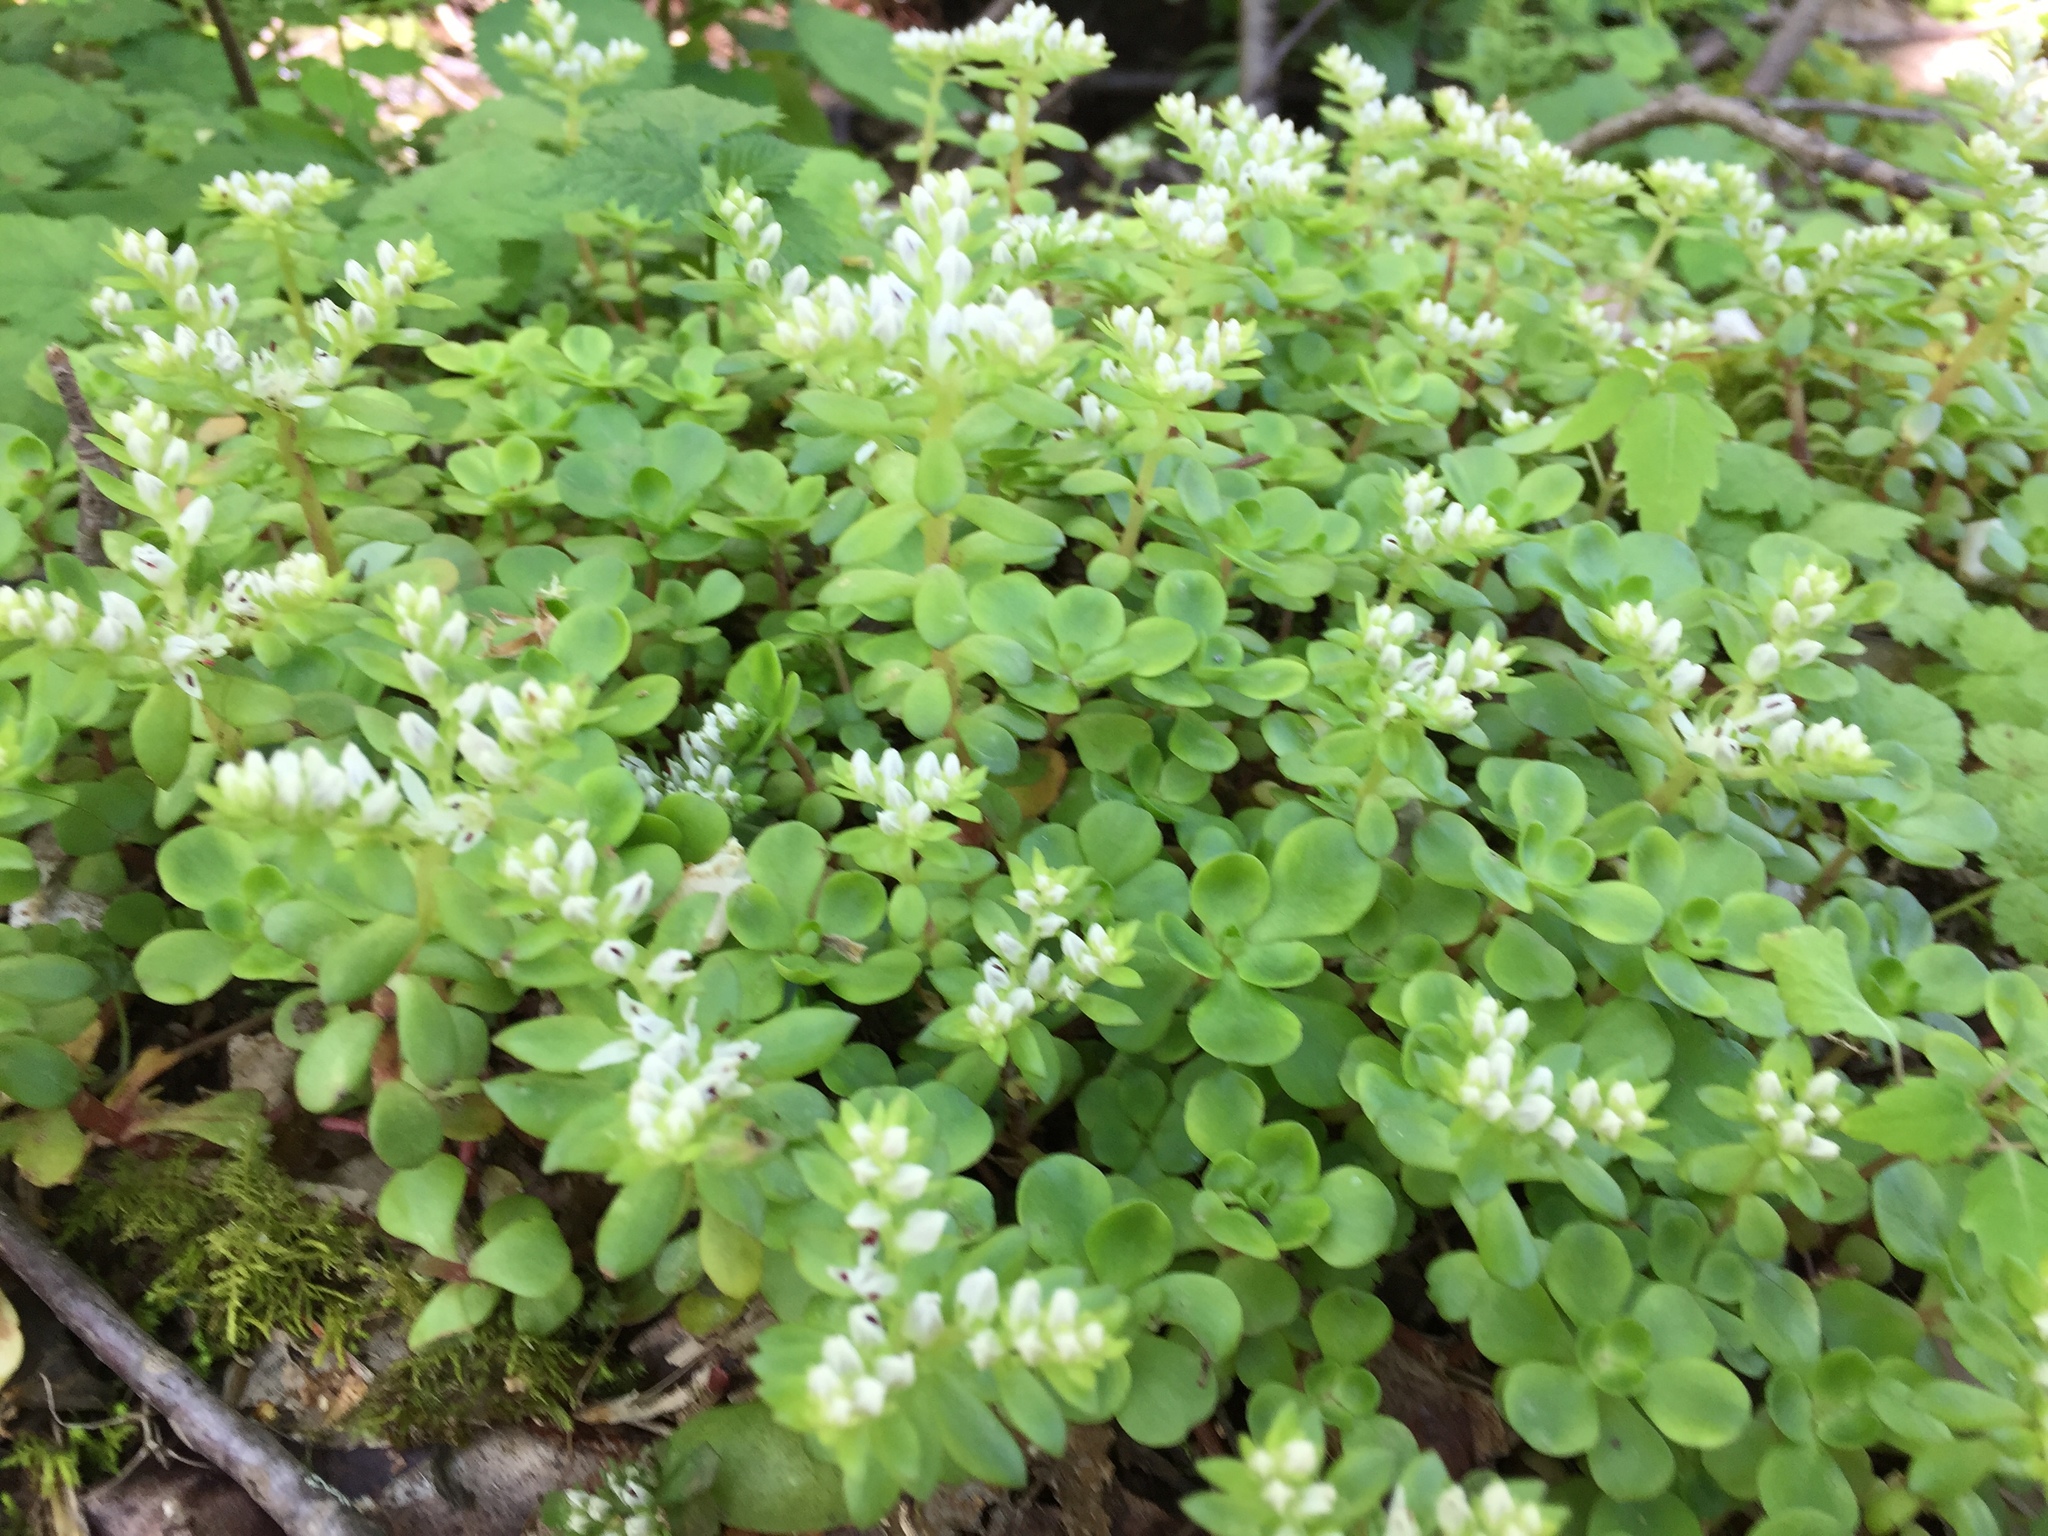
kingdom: Plantae
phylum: Tracheophyta
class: Magnoliopsida
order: Saxifragales
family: Crassulaceae
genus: Sedum
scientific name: Sedum ternatum
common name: Wild stonecrop
